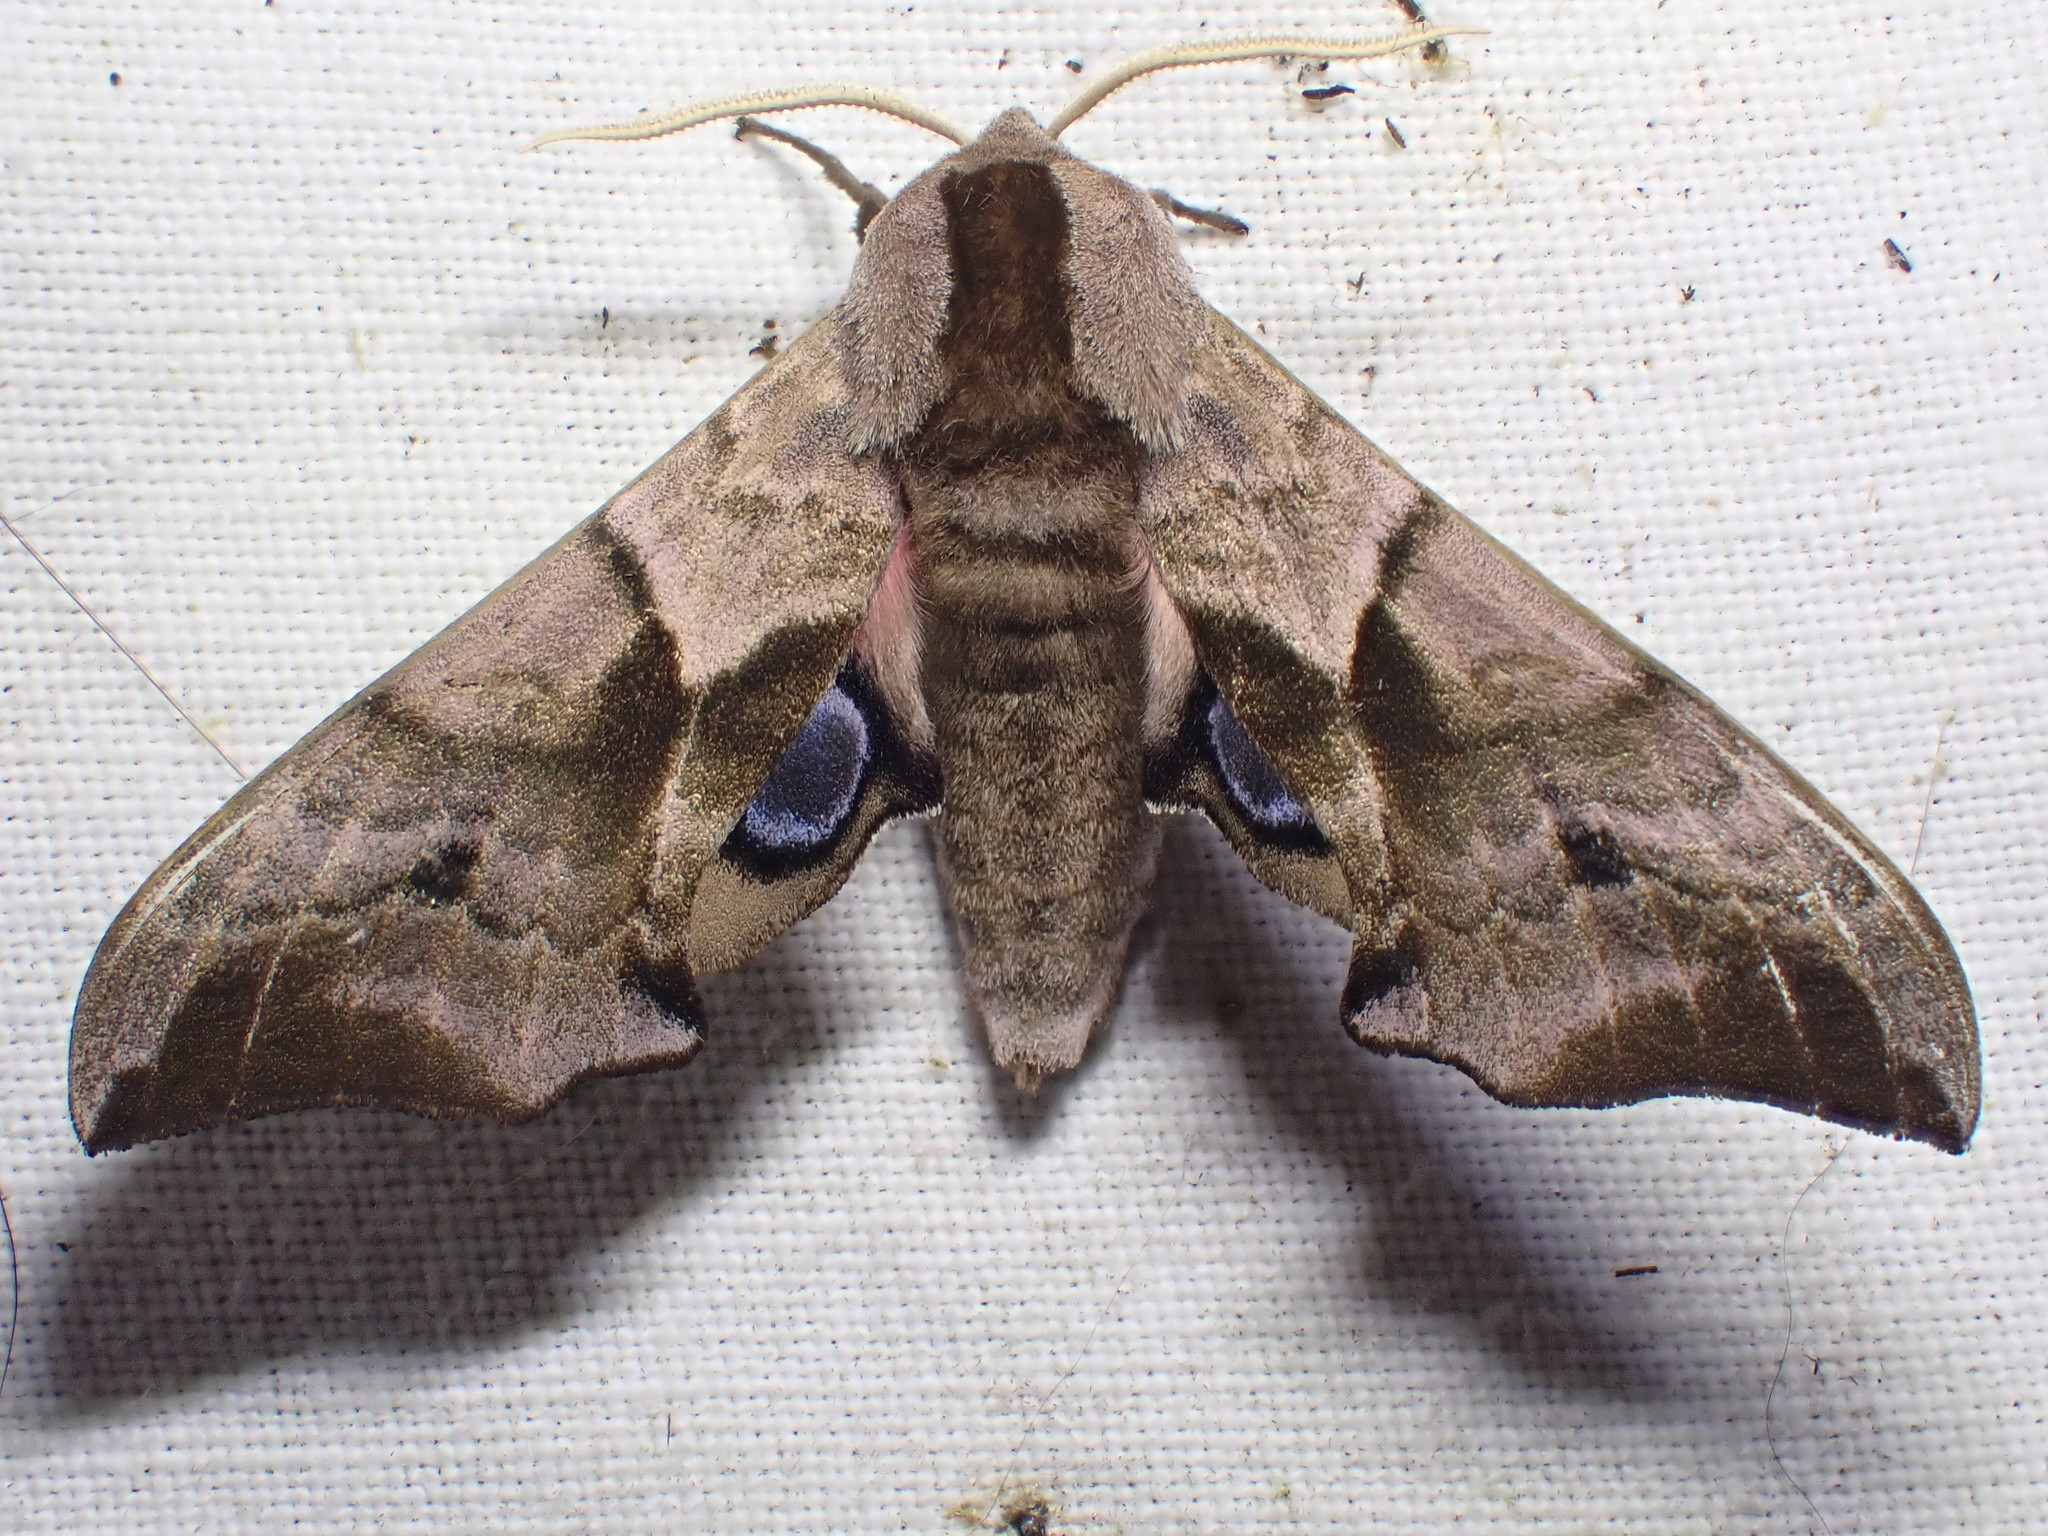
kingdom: Animalia
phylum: Arthropoda
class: Insecta
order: Lepidoptera
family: Sphingidae
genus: Smerinthus
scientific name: Smerinthus ocellata
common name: Eyed hawk-moth
